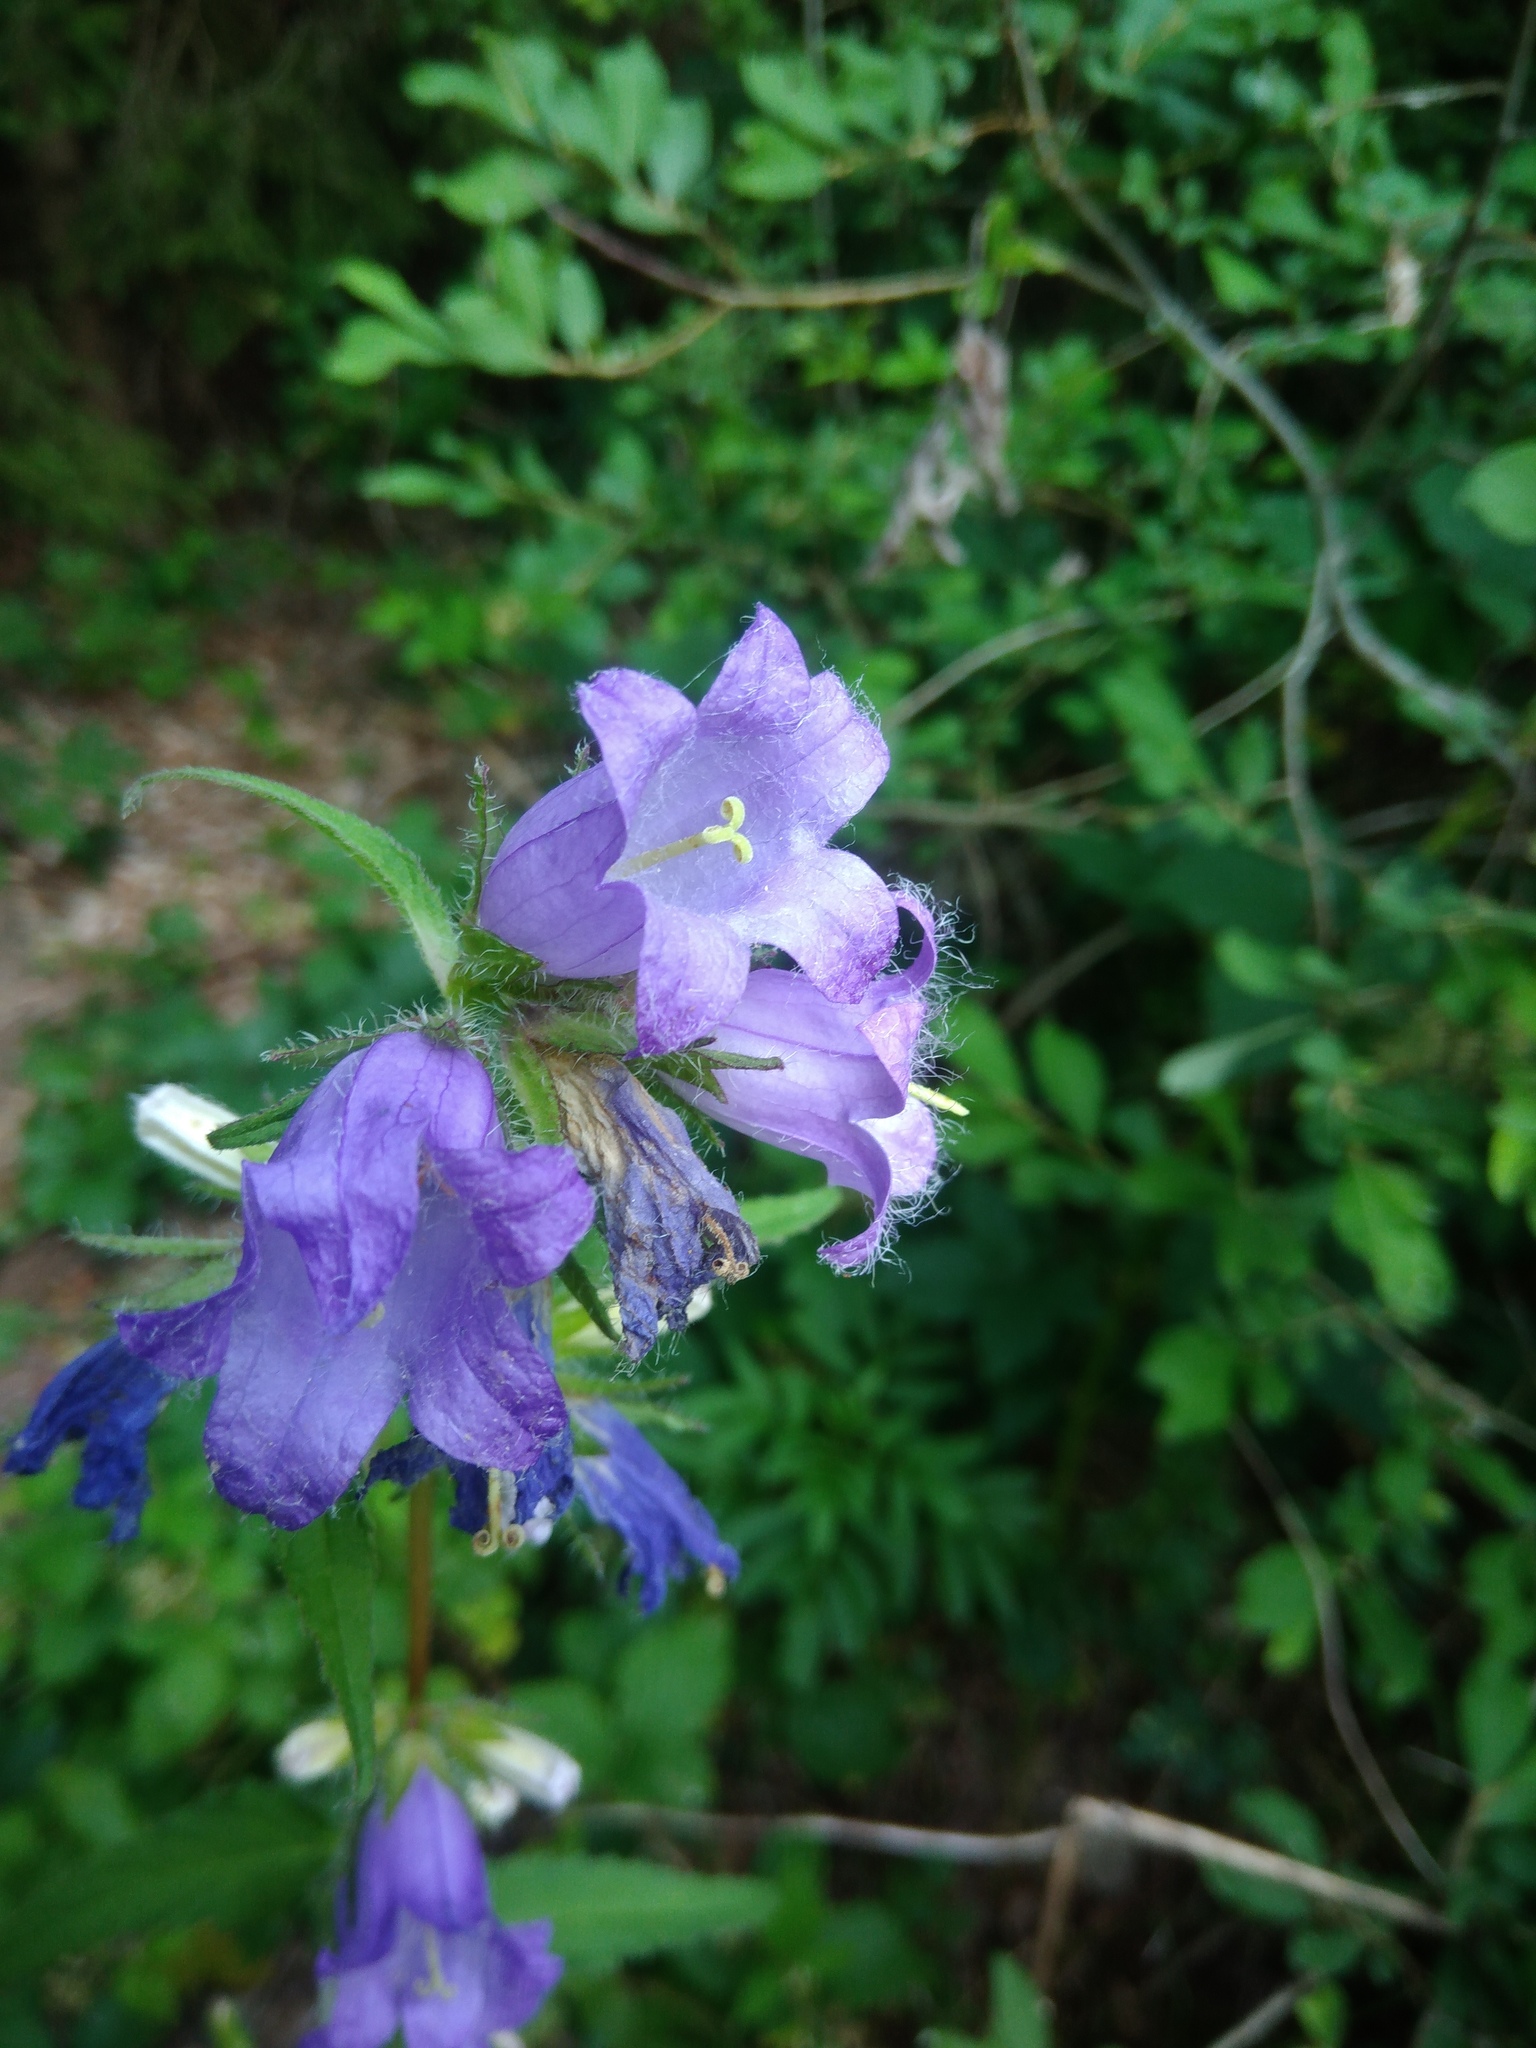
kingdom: Plantae
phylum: Tracheophyta
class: Magnoliopsida
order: Asterales
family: Campanulaceae
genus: Campanula
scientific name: Campanula trachelium
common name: Nettle-leaved bellflower
